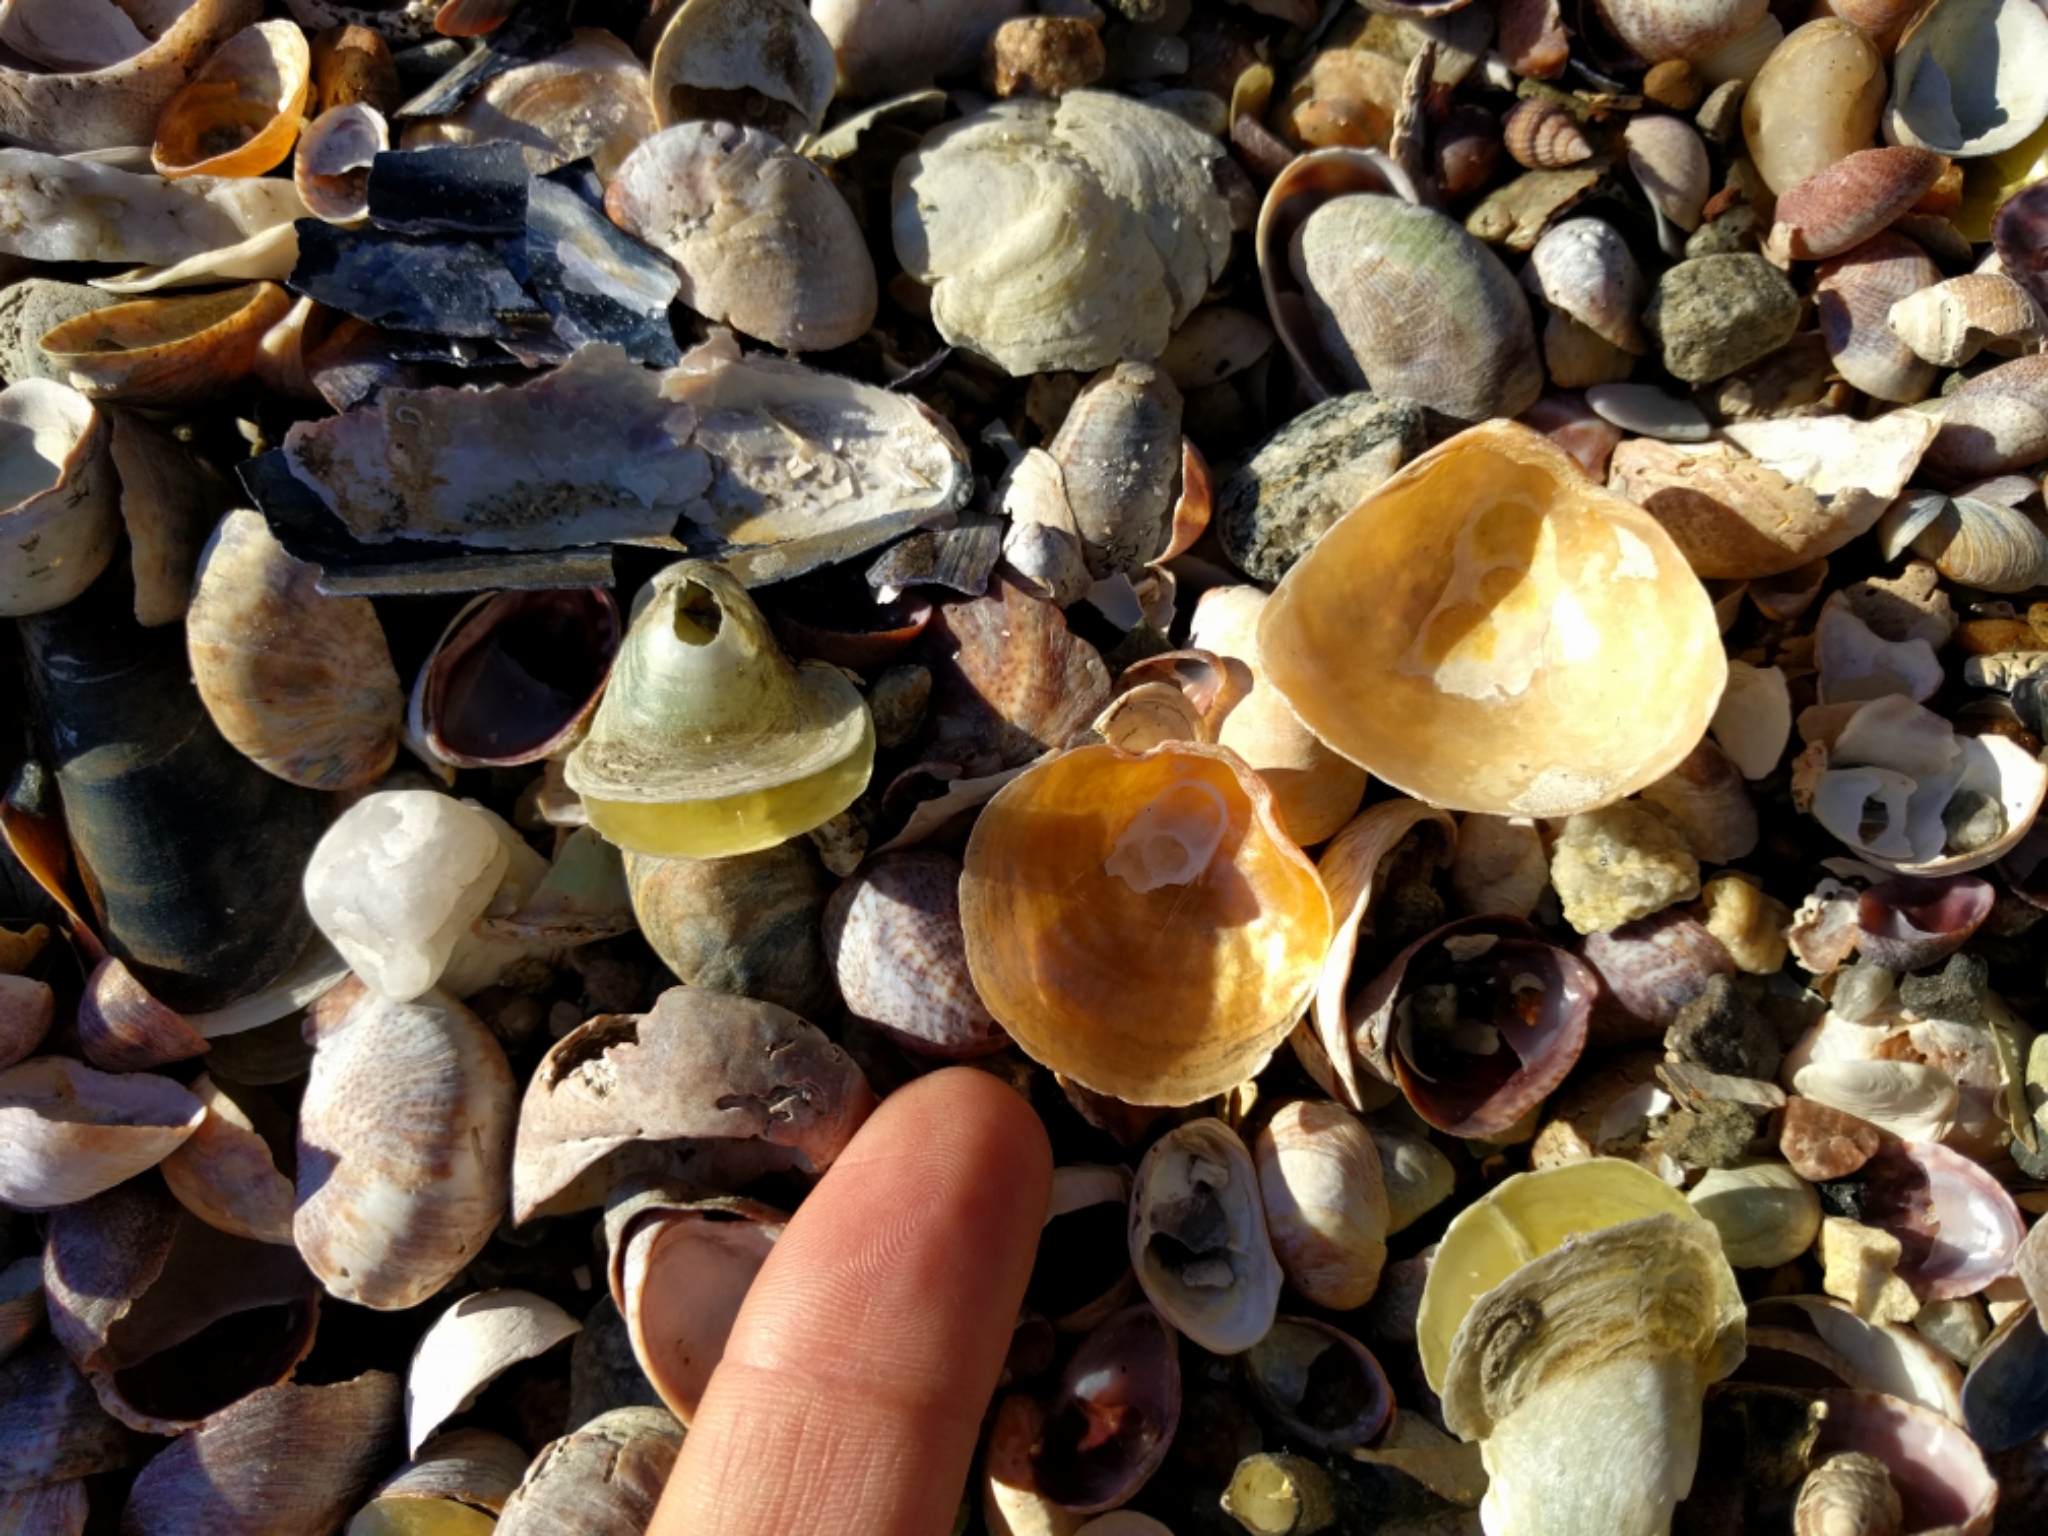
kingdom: Animalia
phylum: Mollusca
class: Bivalvia
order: Pectinida
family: Anomiidae
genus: Anomia
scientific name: Anomia simplex
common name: Common jingle shell
